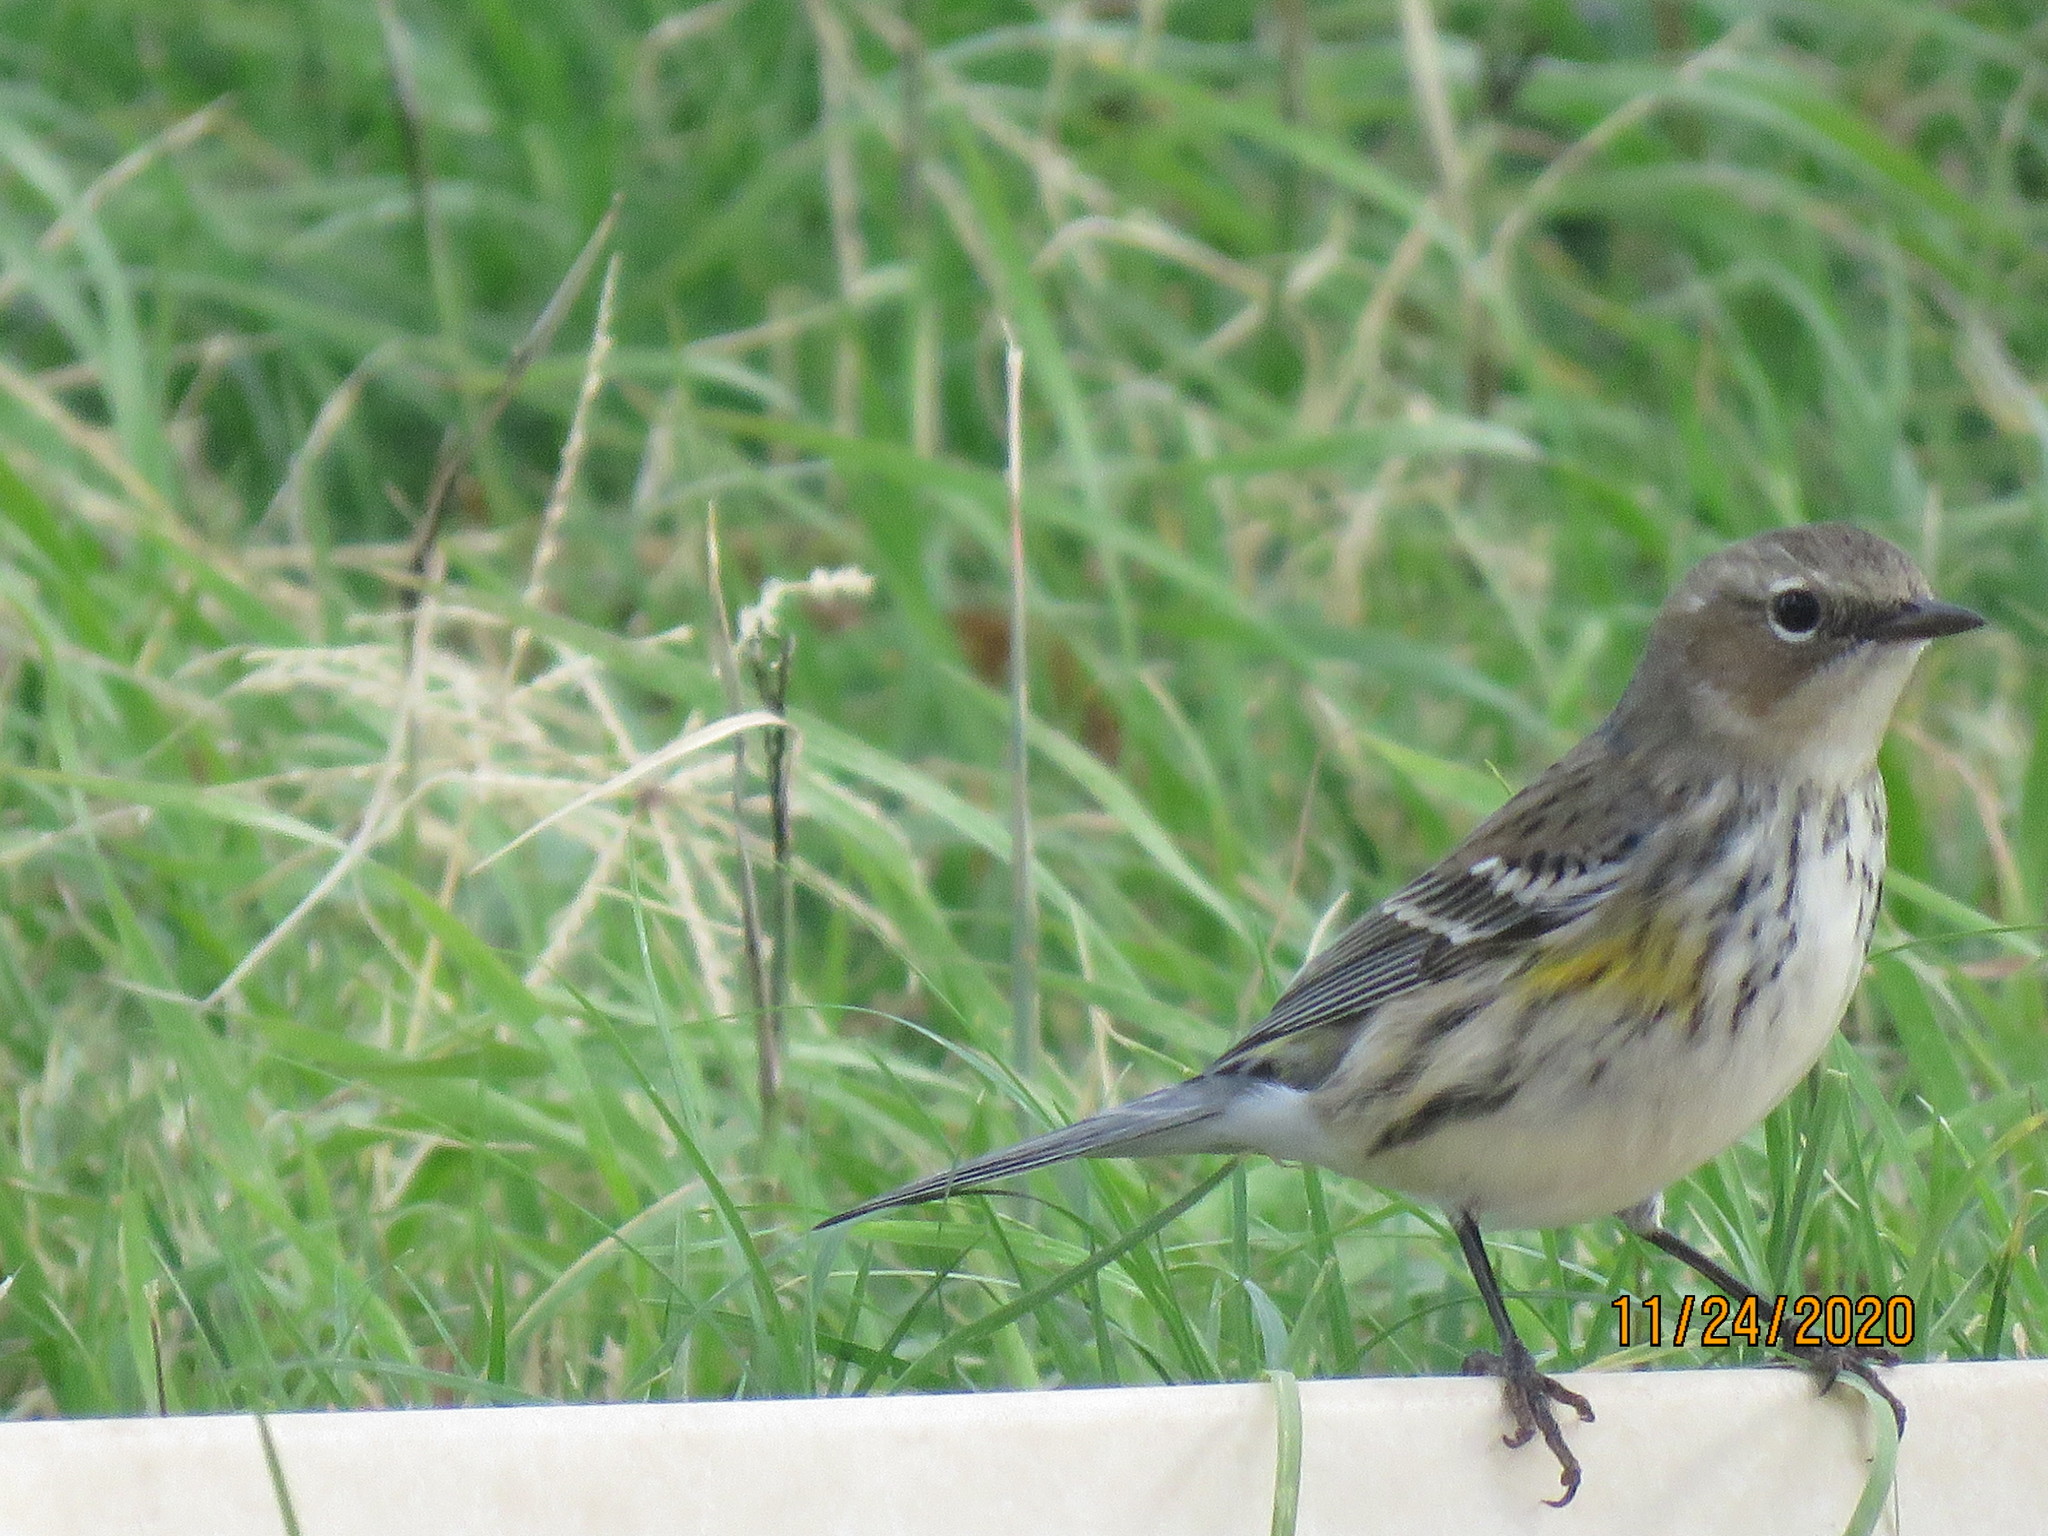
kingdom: Animalia
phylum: Chordata
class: Aves
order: Passeriformes
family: Parulidae
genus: Setophaga
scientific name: Setophaga coronata
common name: Myrtle warbler
